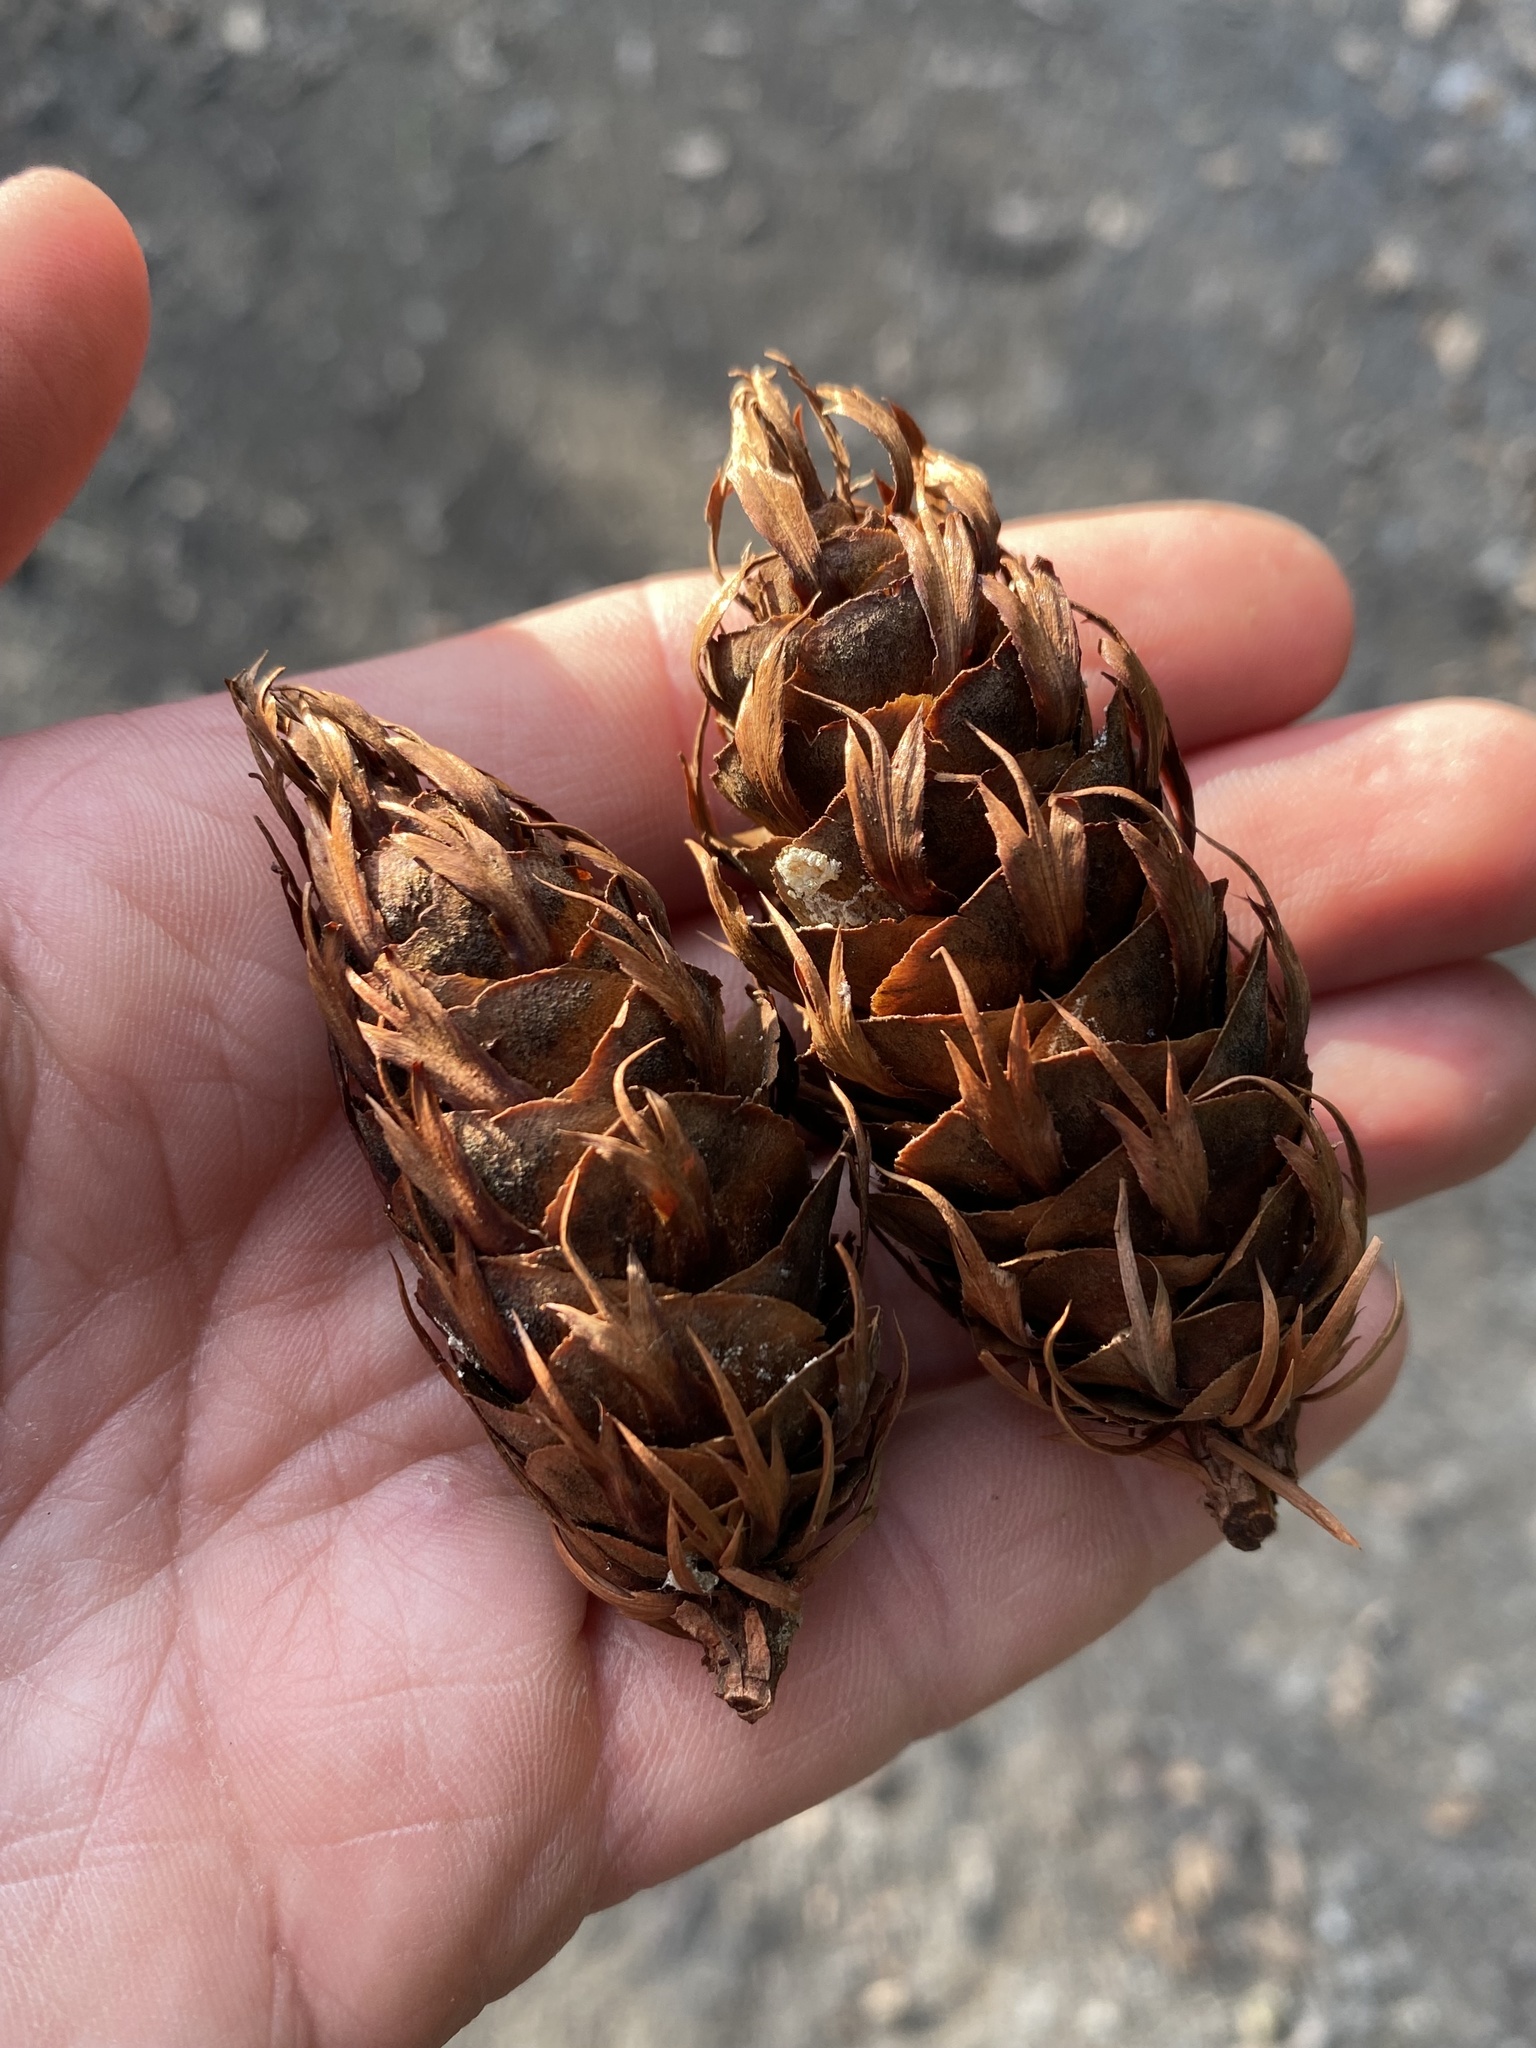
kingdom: Plantae
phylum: Tracheophyta
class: Pinopsida
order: Pinales
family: Pinaceae
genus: Pseudotsuga
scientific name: Pseudotsuga menziesii
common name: Douglas fir
